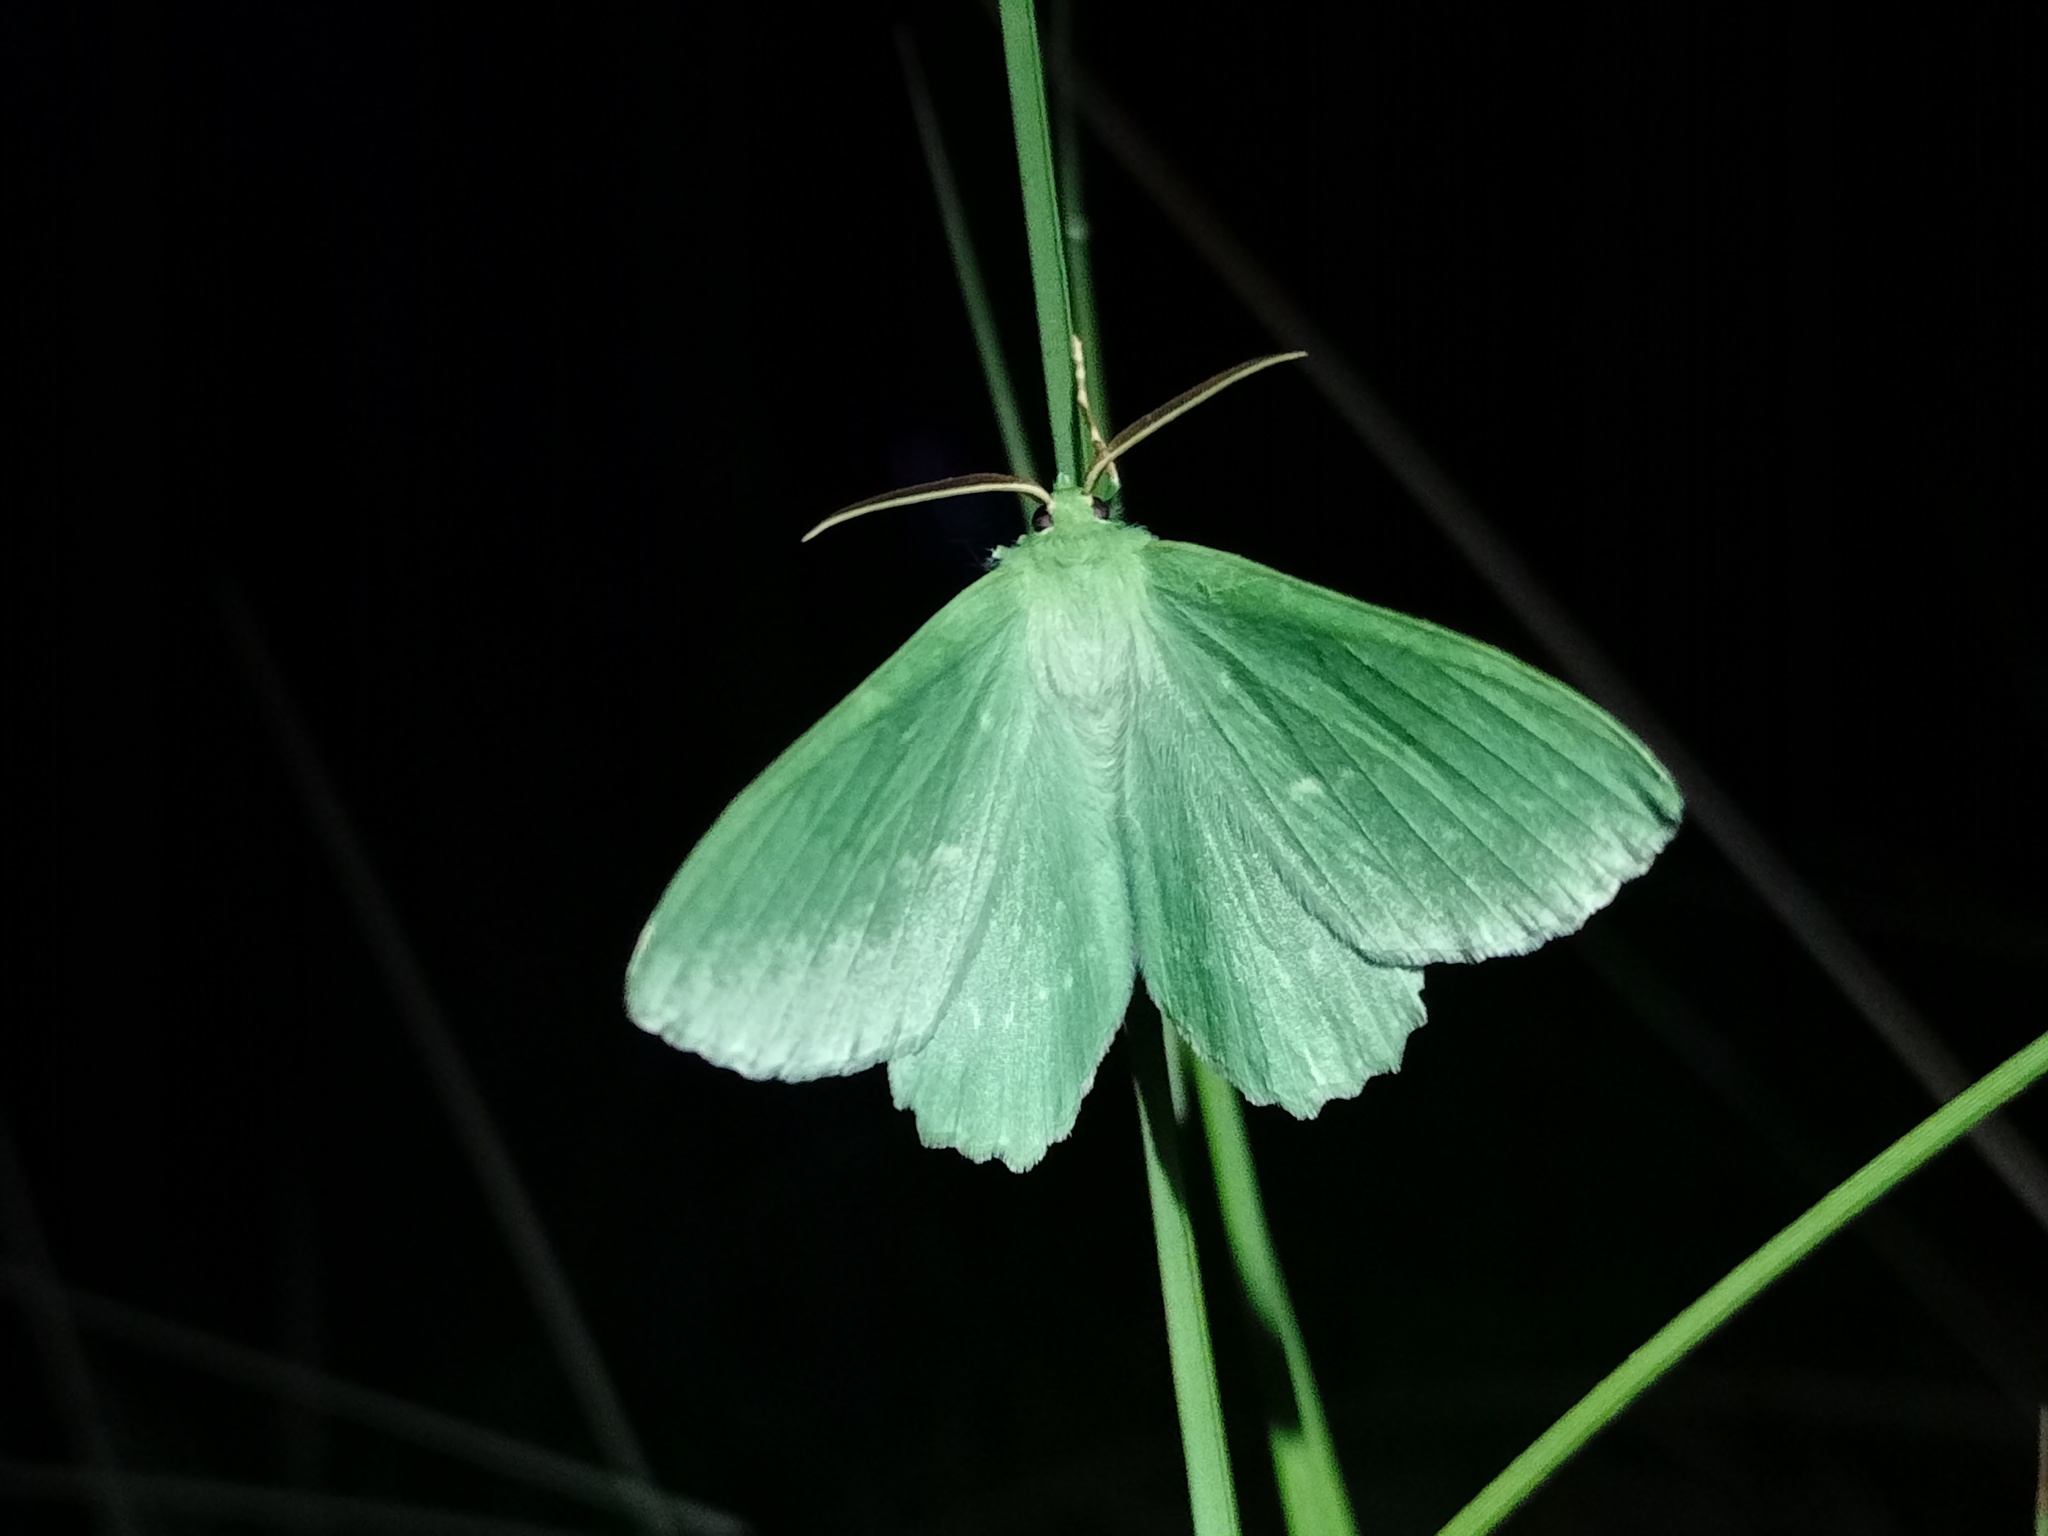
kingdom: Animalia
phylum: Arthropoda
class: Insecta
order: Lepidoptera
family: Geometridae
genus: Geometra
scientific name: Geometra papilionaria
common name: Large emerald
